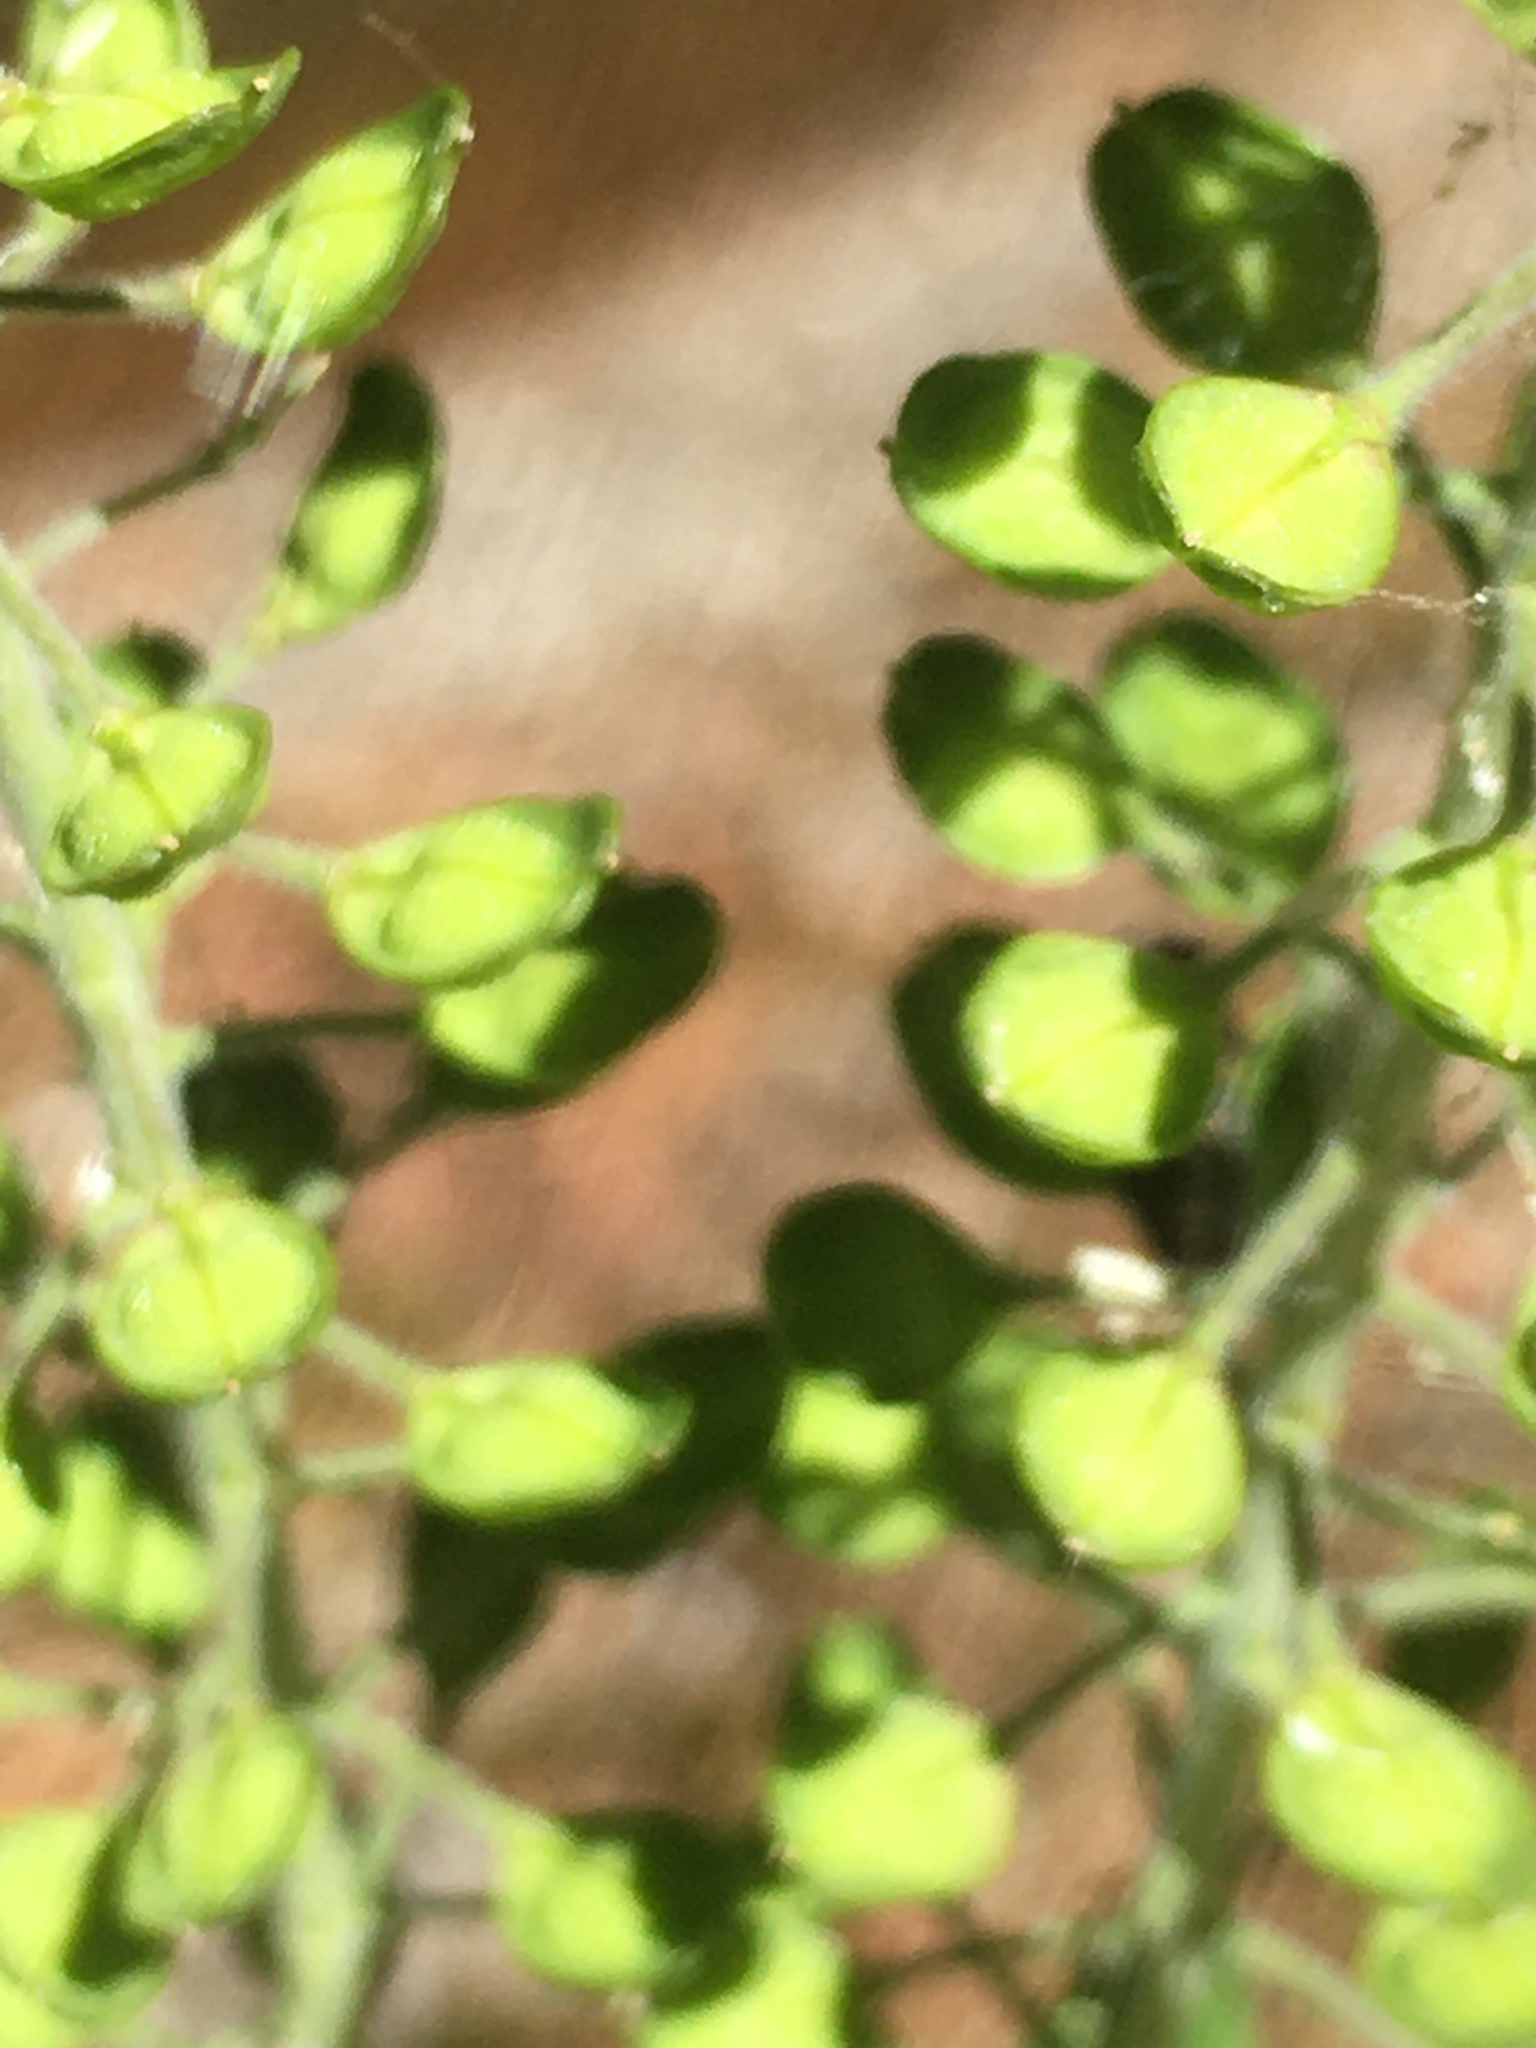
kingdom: Plantae
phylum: Tracheophyta
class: Magnoliopsida
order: Brassicales
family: Brassicaceae
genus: Lepidium
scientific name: Lepidium campestre
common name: Field pepperwort
